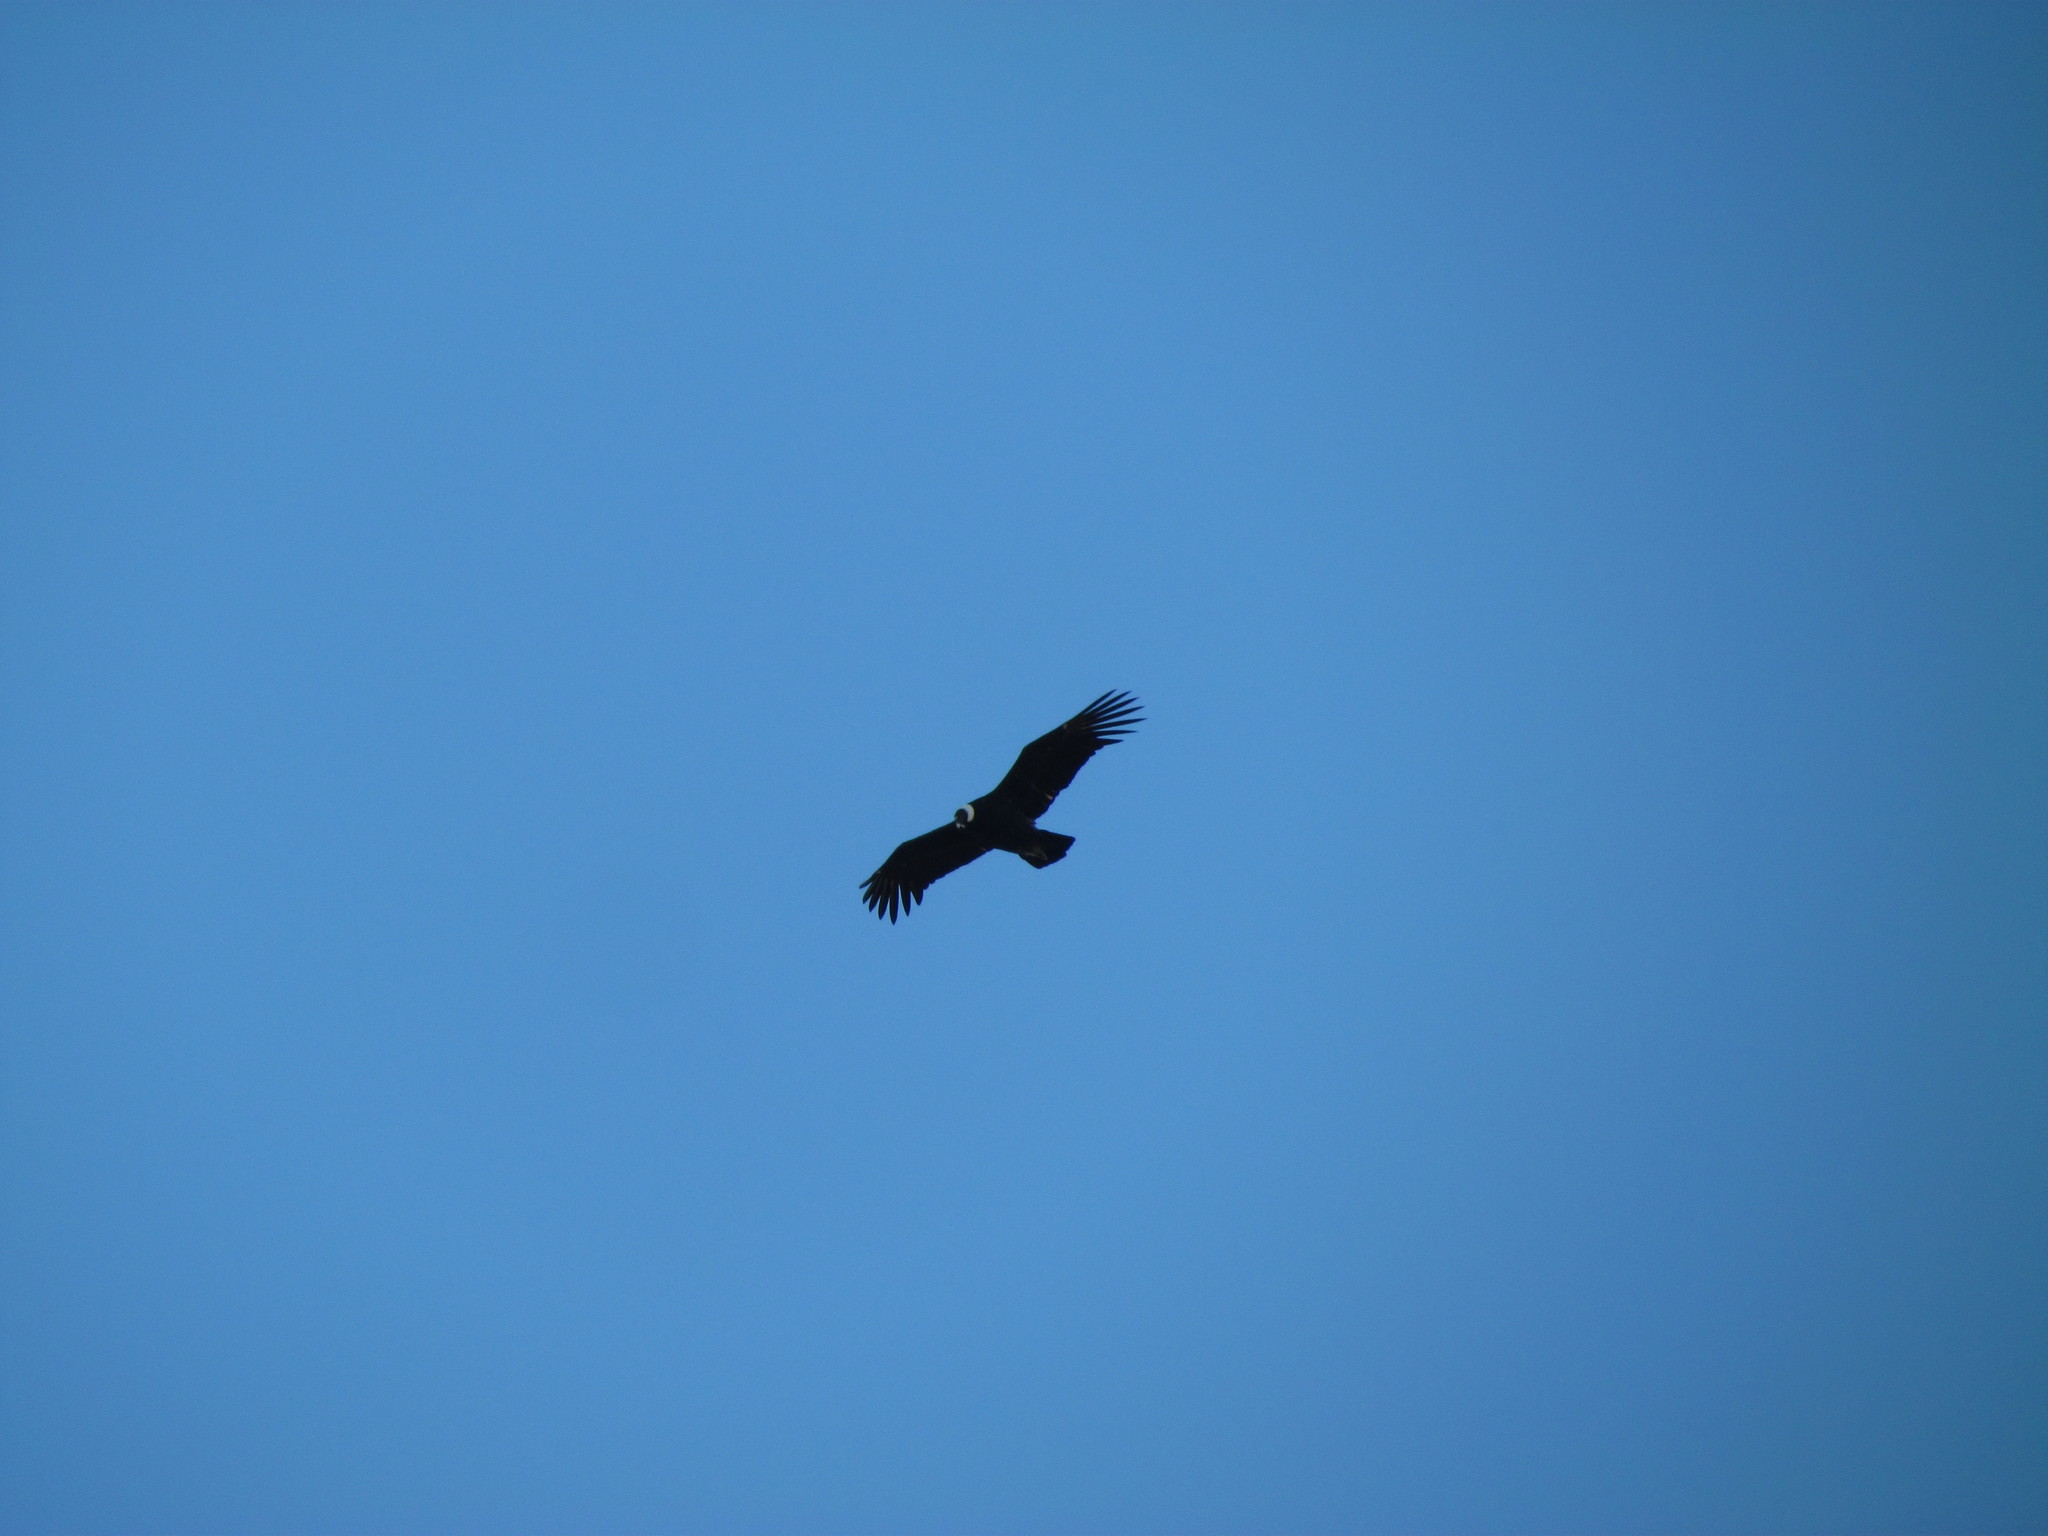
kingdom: Animalia
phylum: Chordata
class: Aves
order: Accipitriformes
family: Cathartidae
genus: Vultur
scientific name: Vultur gryphus
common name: Andean condor
